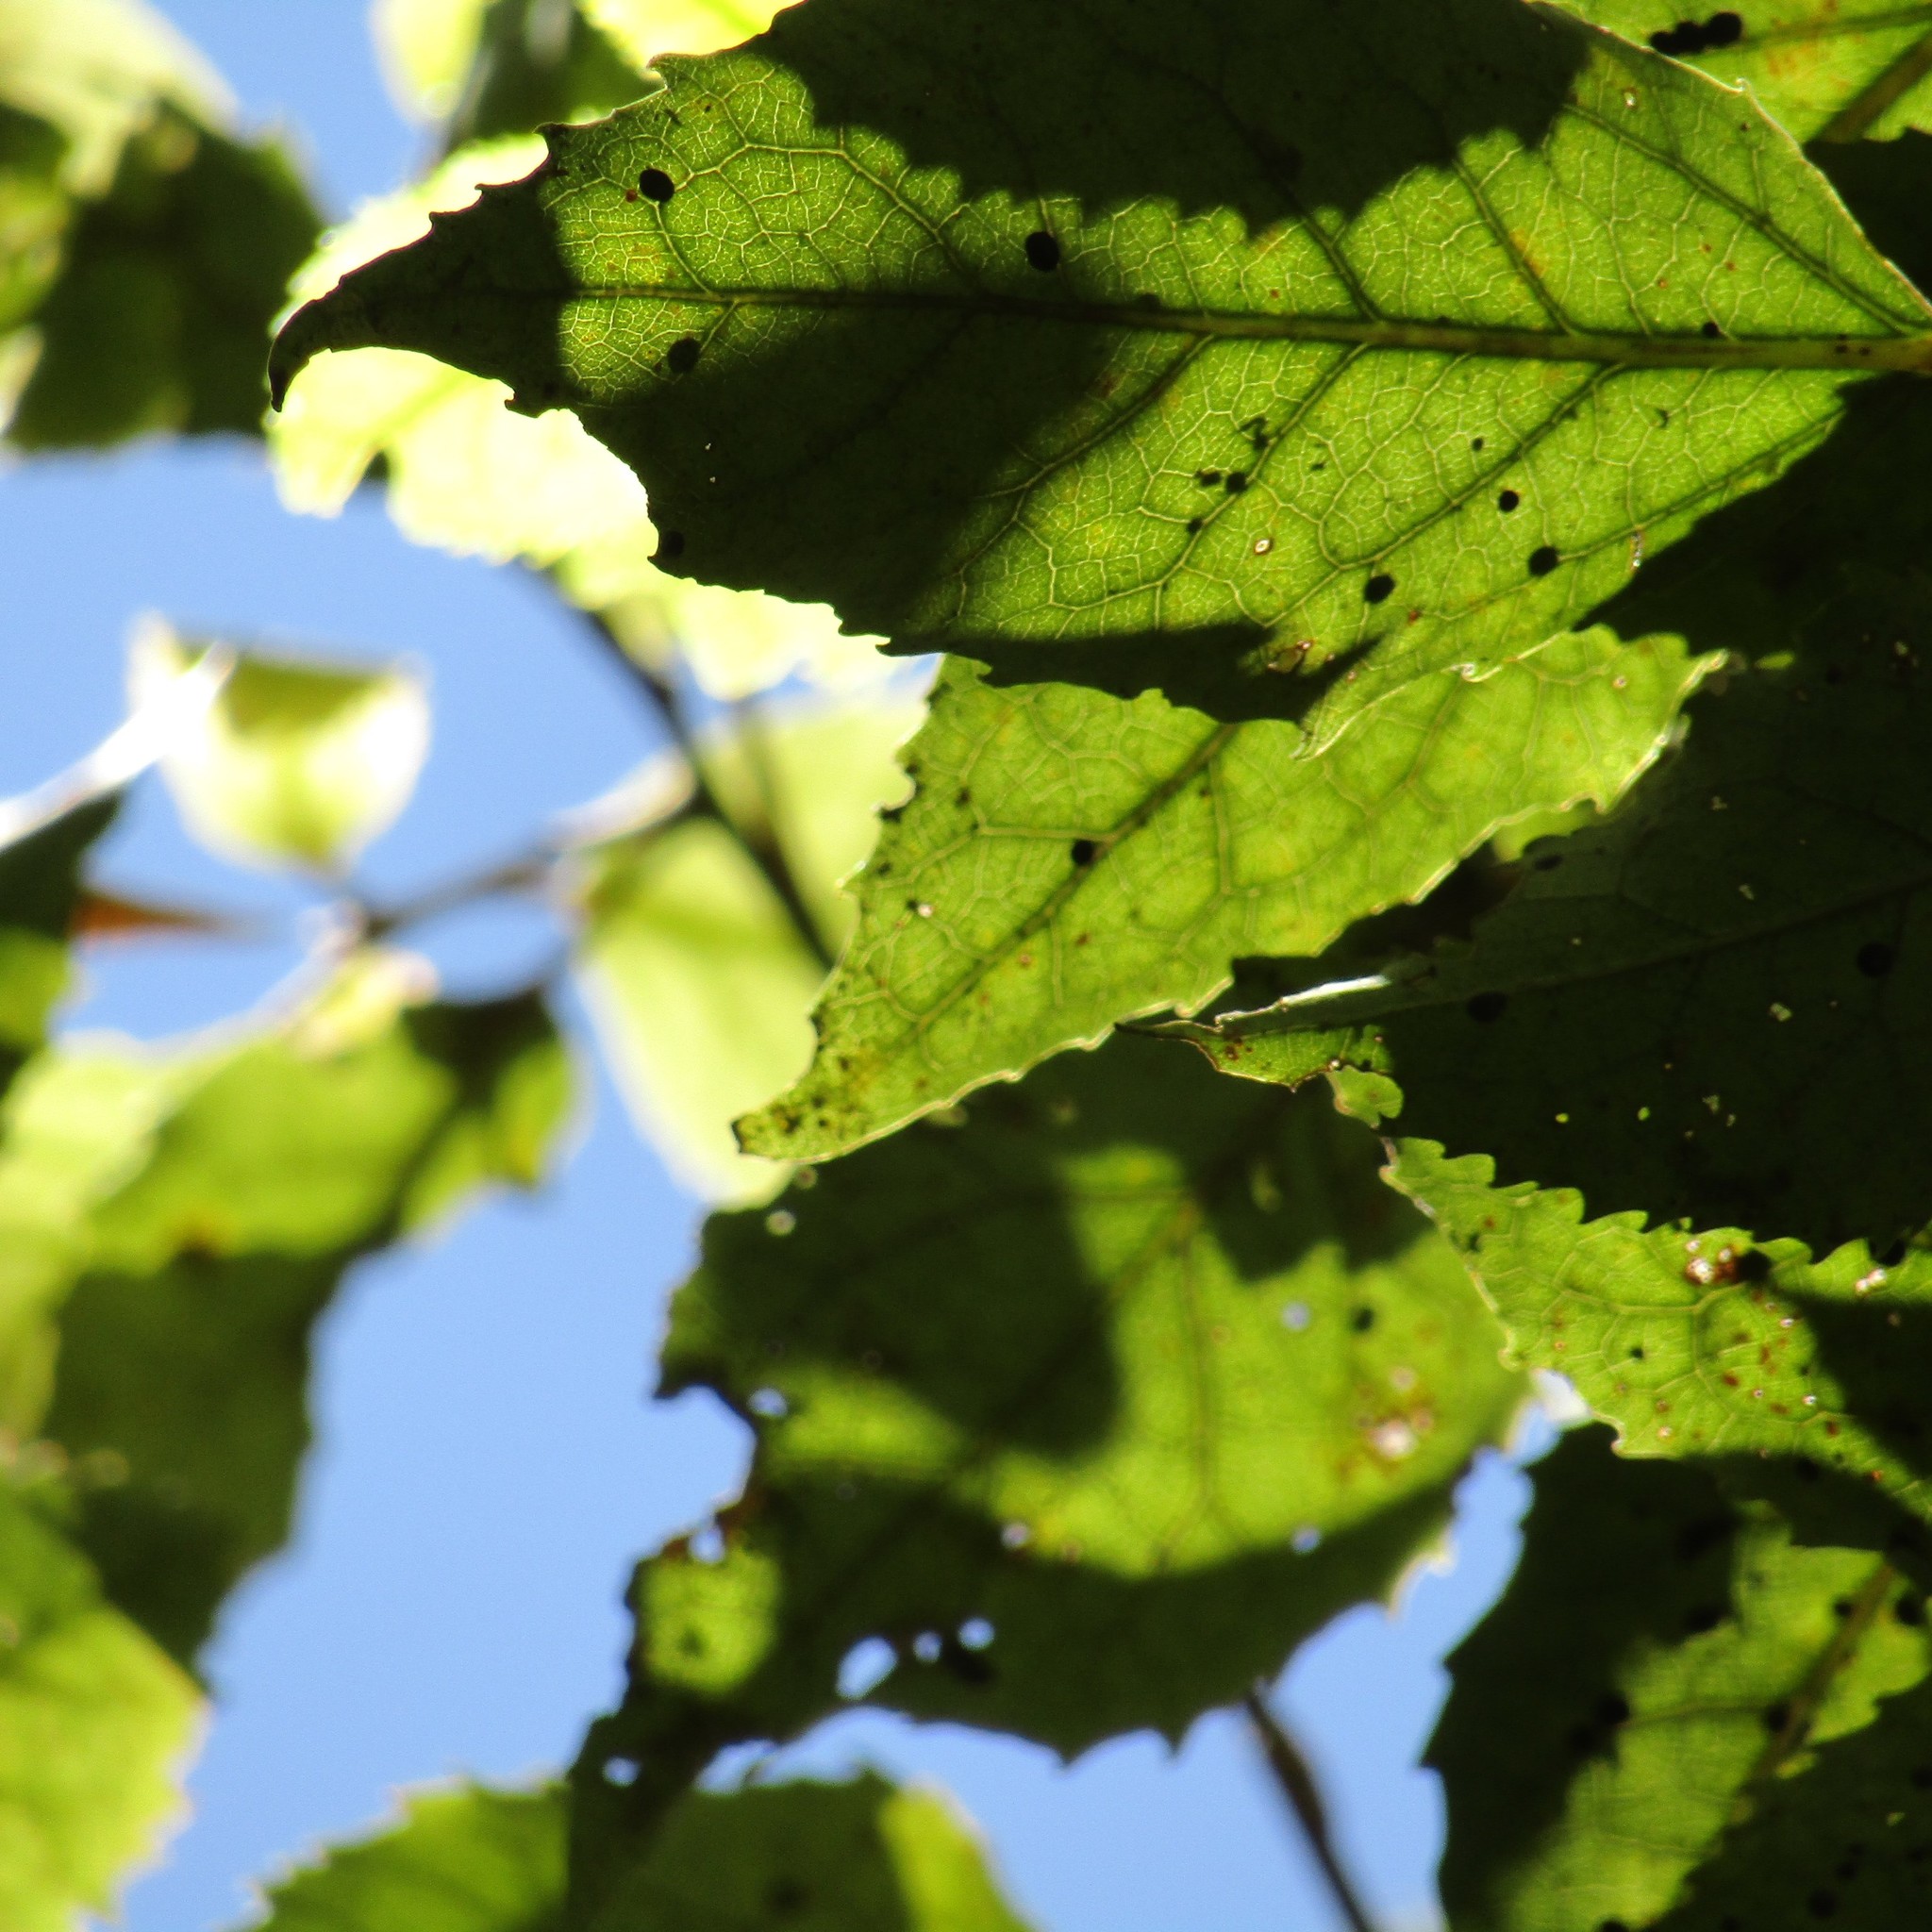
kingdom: Plantae
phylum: Tracheophyta
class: Magnoliopsida
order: Malvales
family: Malvaceae
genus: Hoheria
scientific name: Hoheria populnea
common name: Lacebark
